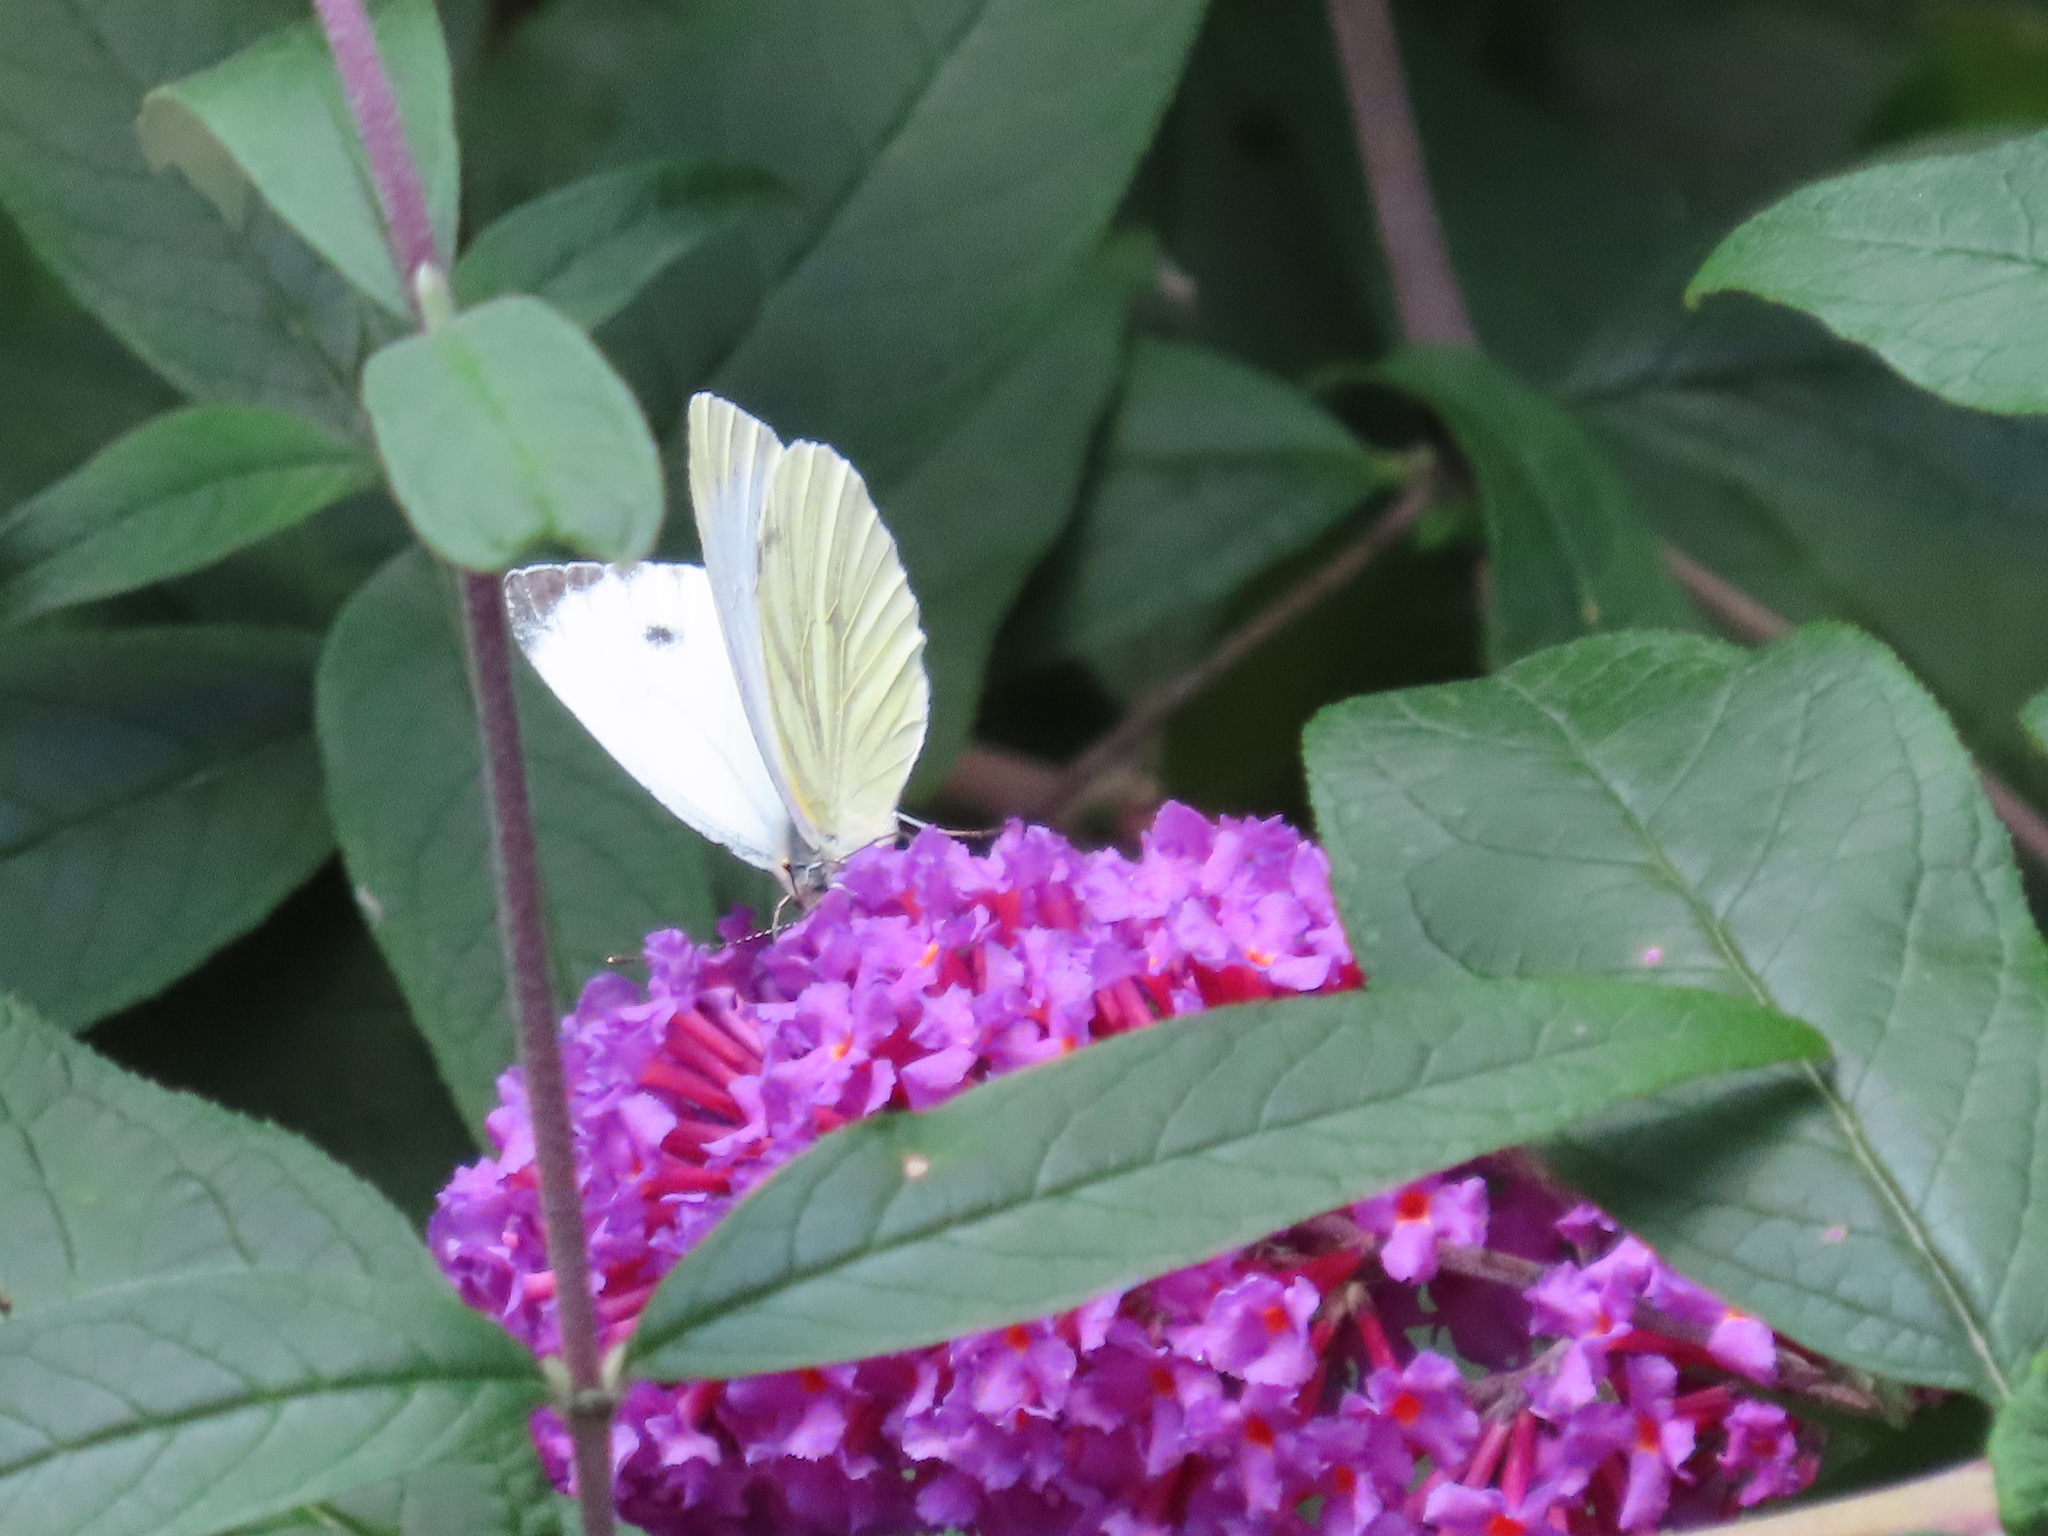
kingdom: Animalia
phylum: Arthropoda
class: Insecta
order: Lepidoptera
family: Pieridae
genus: Pieris
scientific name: Pieris napi
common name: Green-veined white
